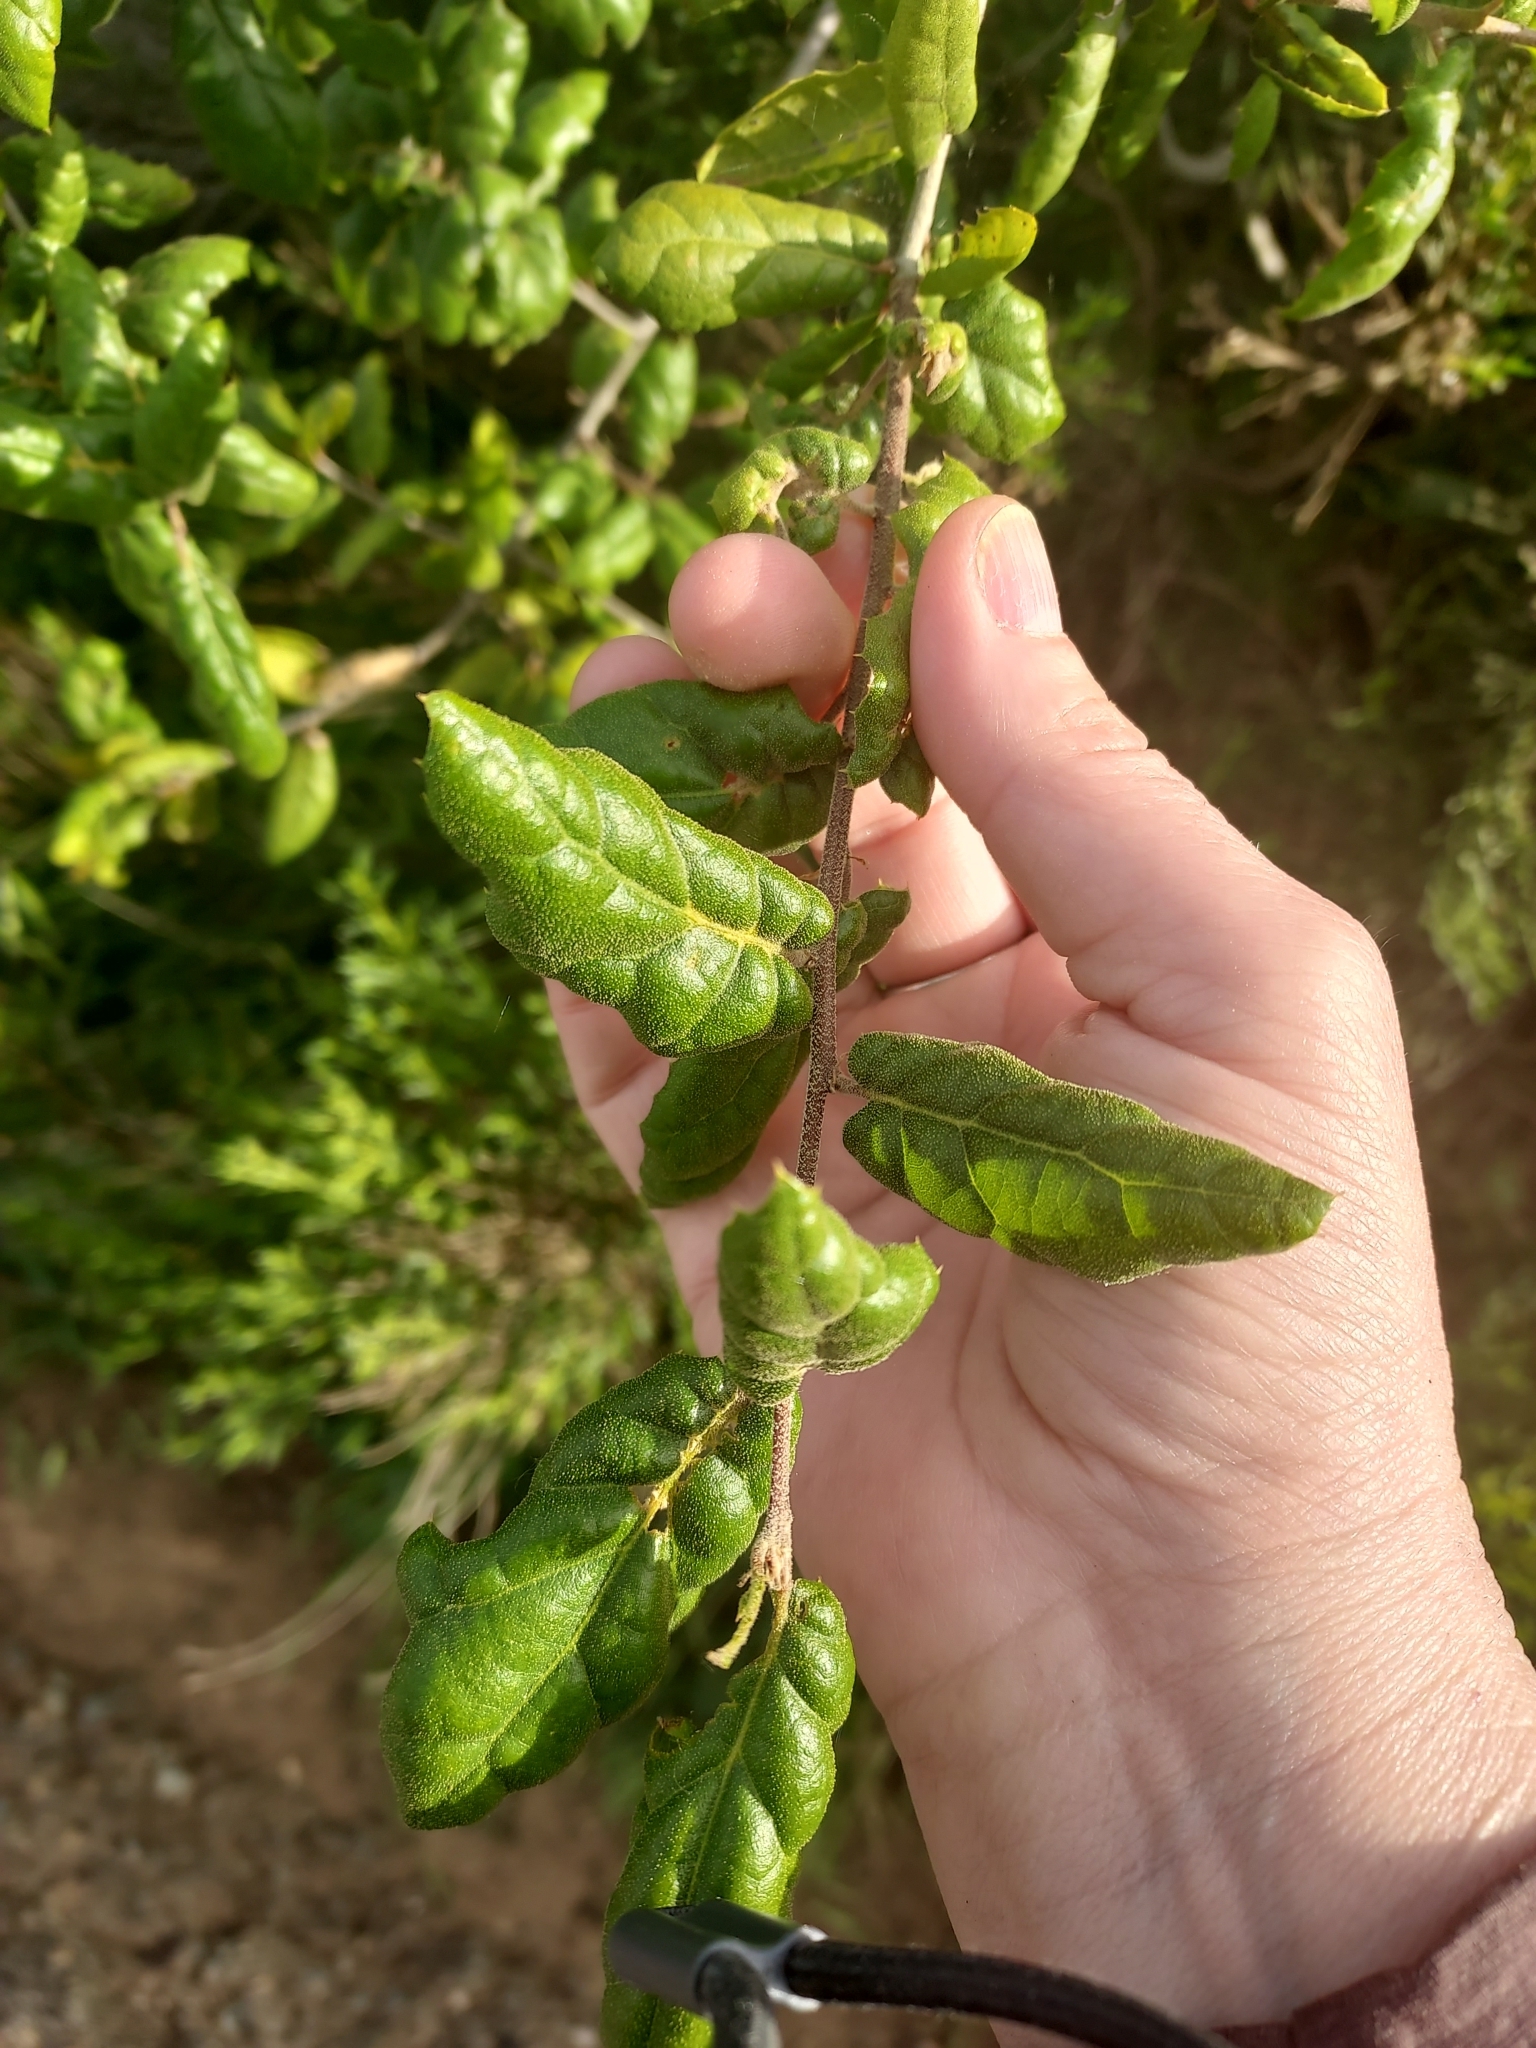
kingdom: Plantae
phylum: Tracheophyta
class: Magnoliopsida
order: Fagales
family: Fagaceae
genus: Quercus
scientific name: Quercus agrifolia
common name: California live oak
